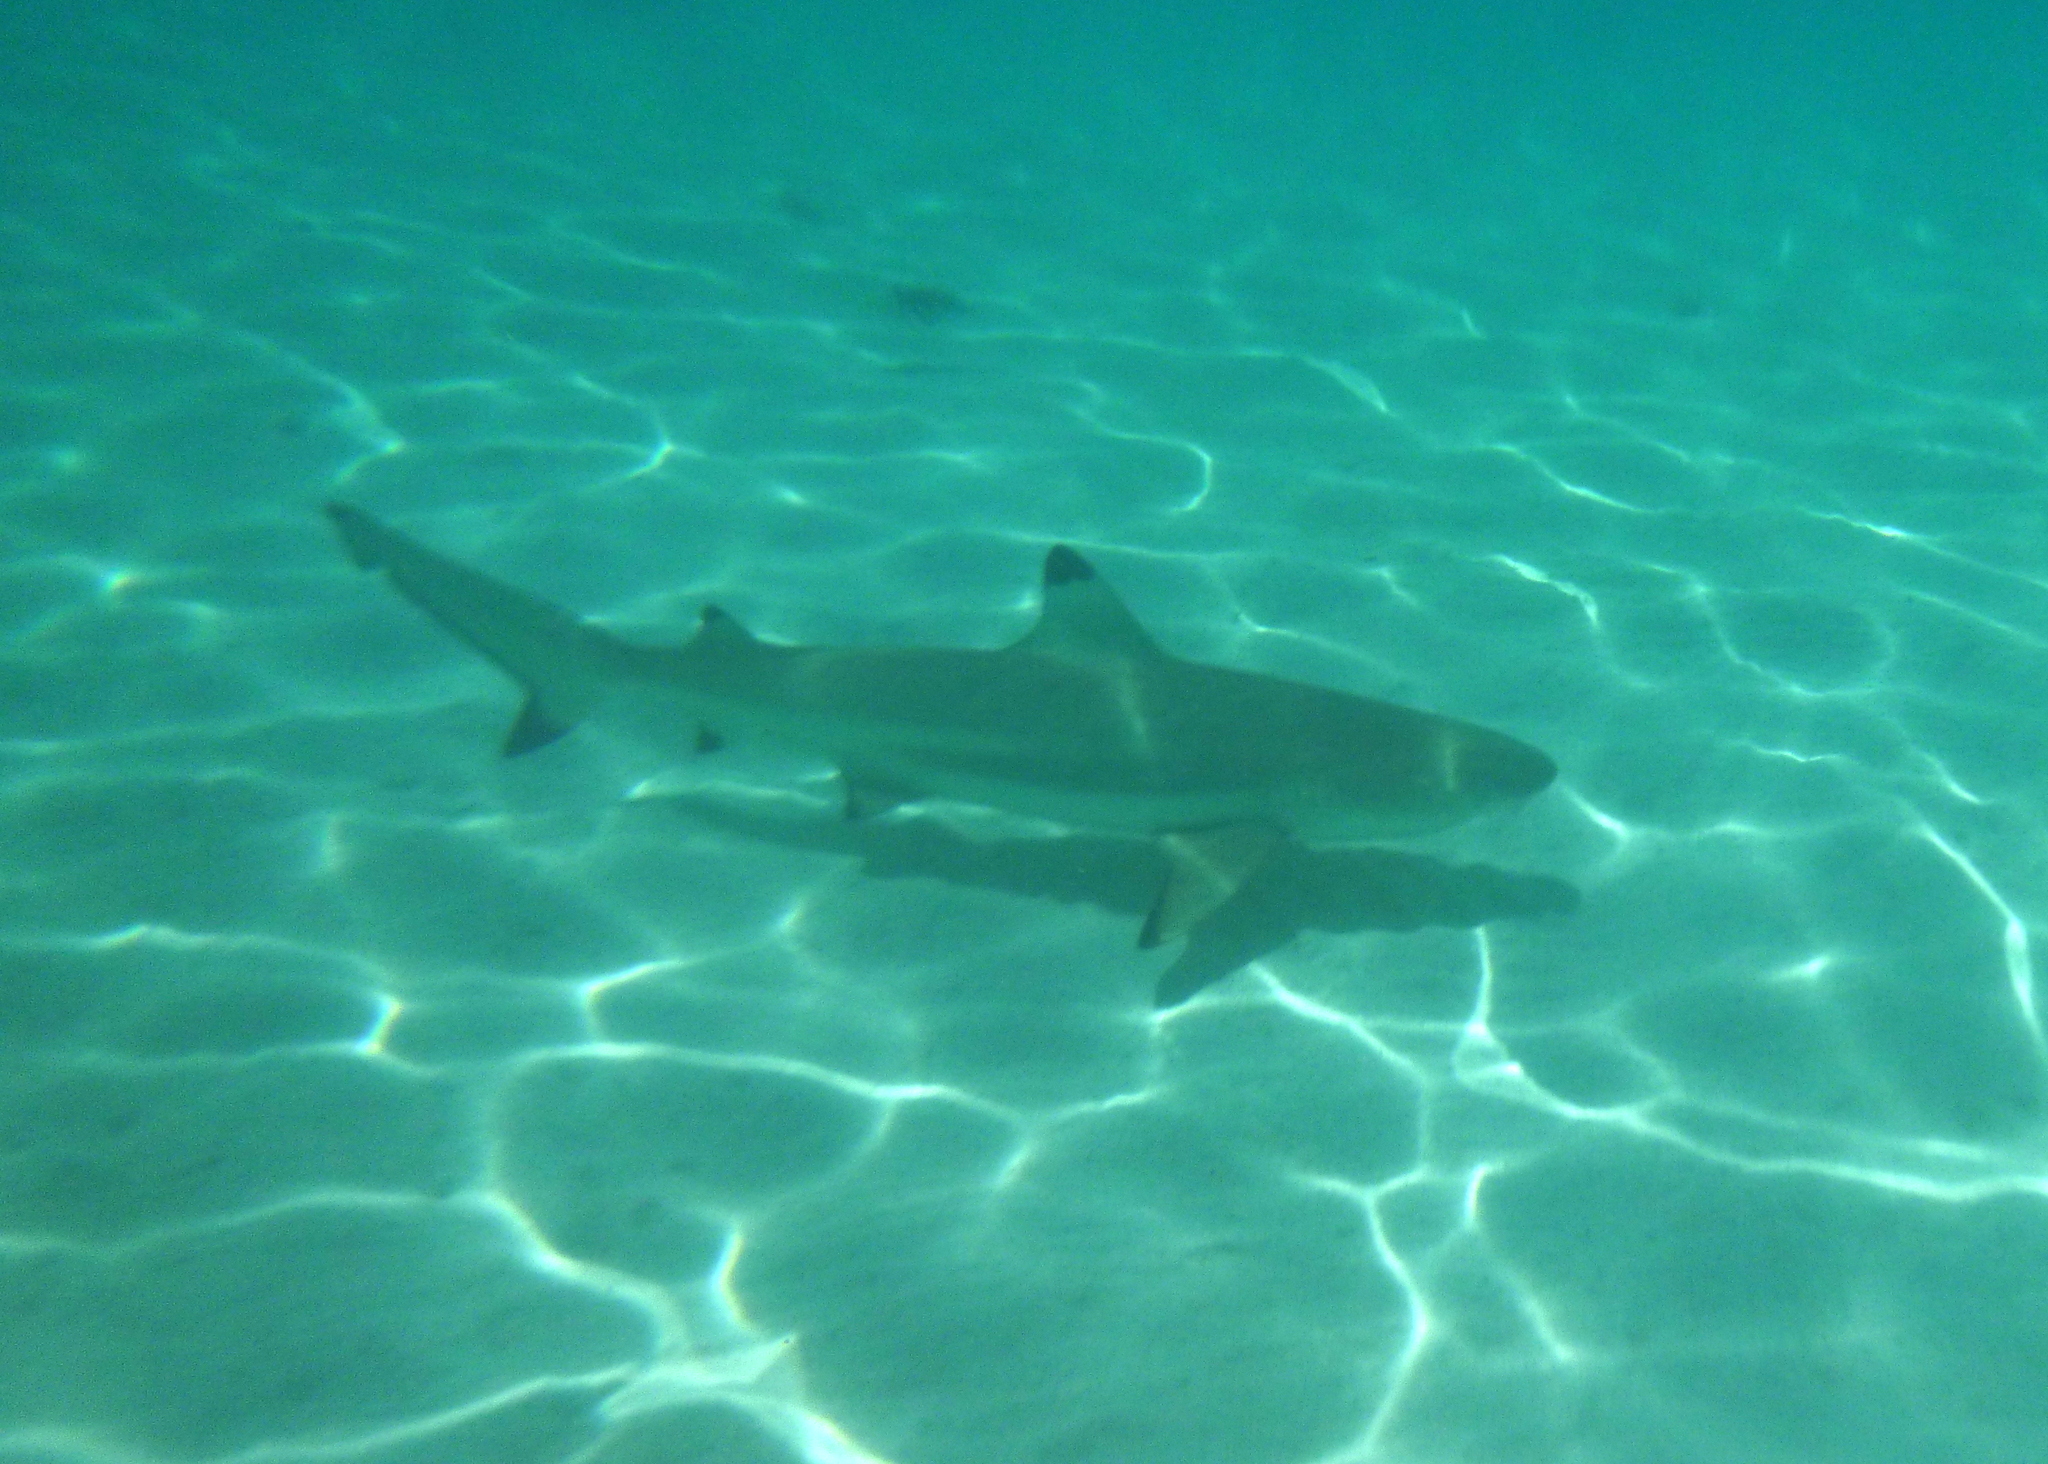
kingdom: Animalia
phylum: Chordata
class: Elasmobranchii
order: Carcharhiniformes
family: Carcharhinidae
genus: Carcharhinus
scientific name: Carcharhinus melanopterus
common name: Blacktip reef shark
